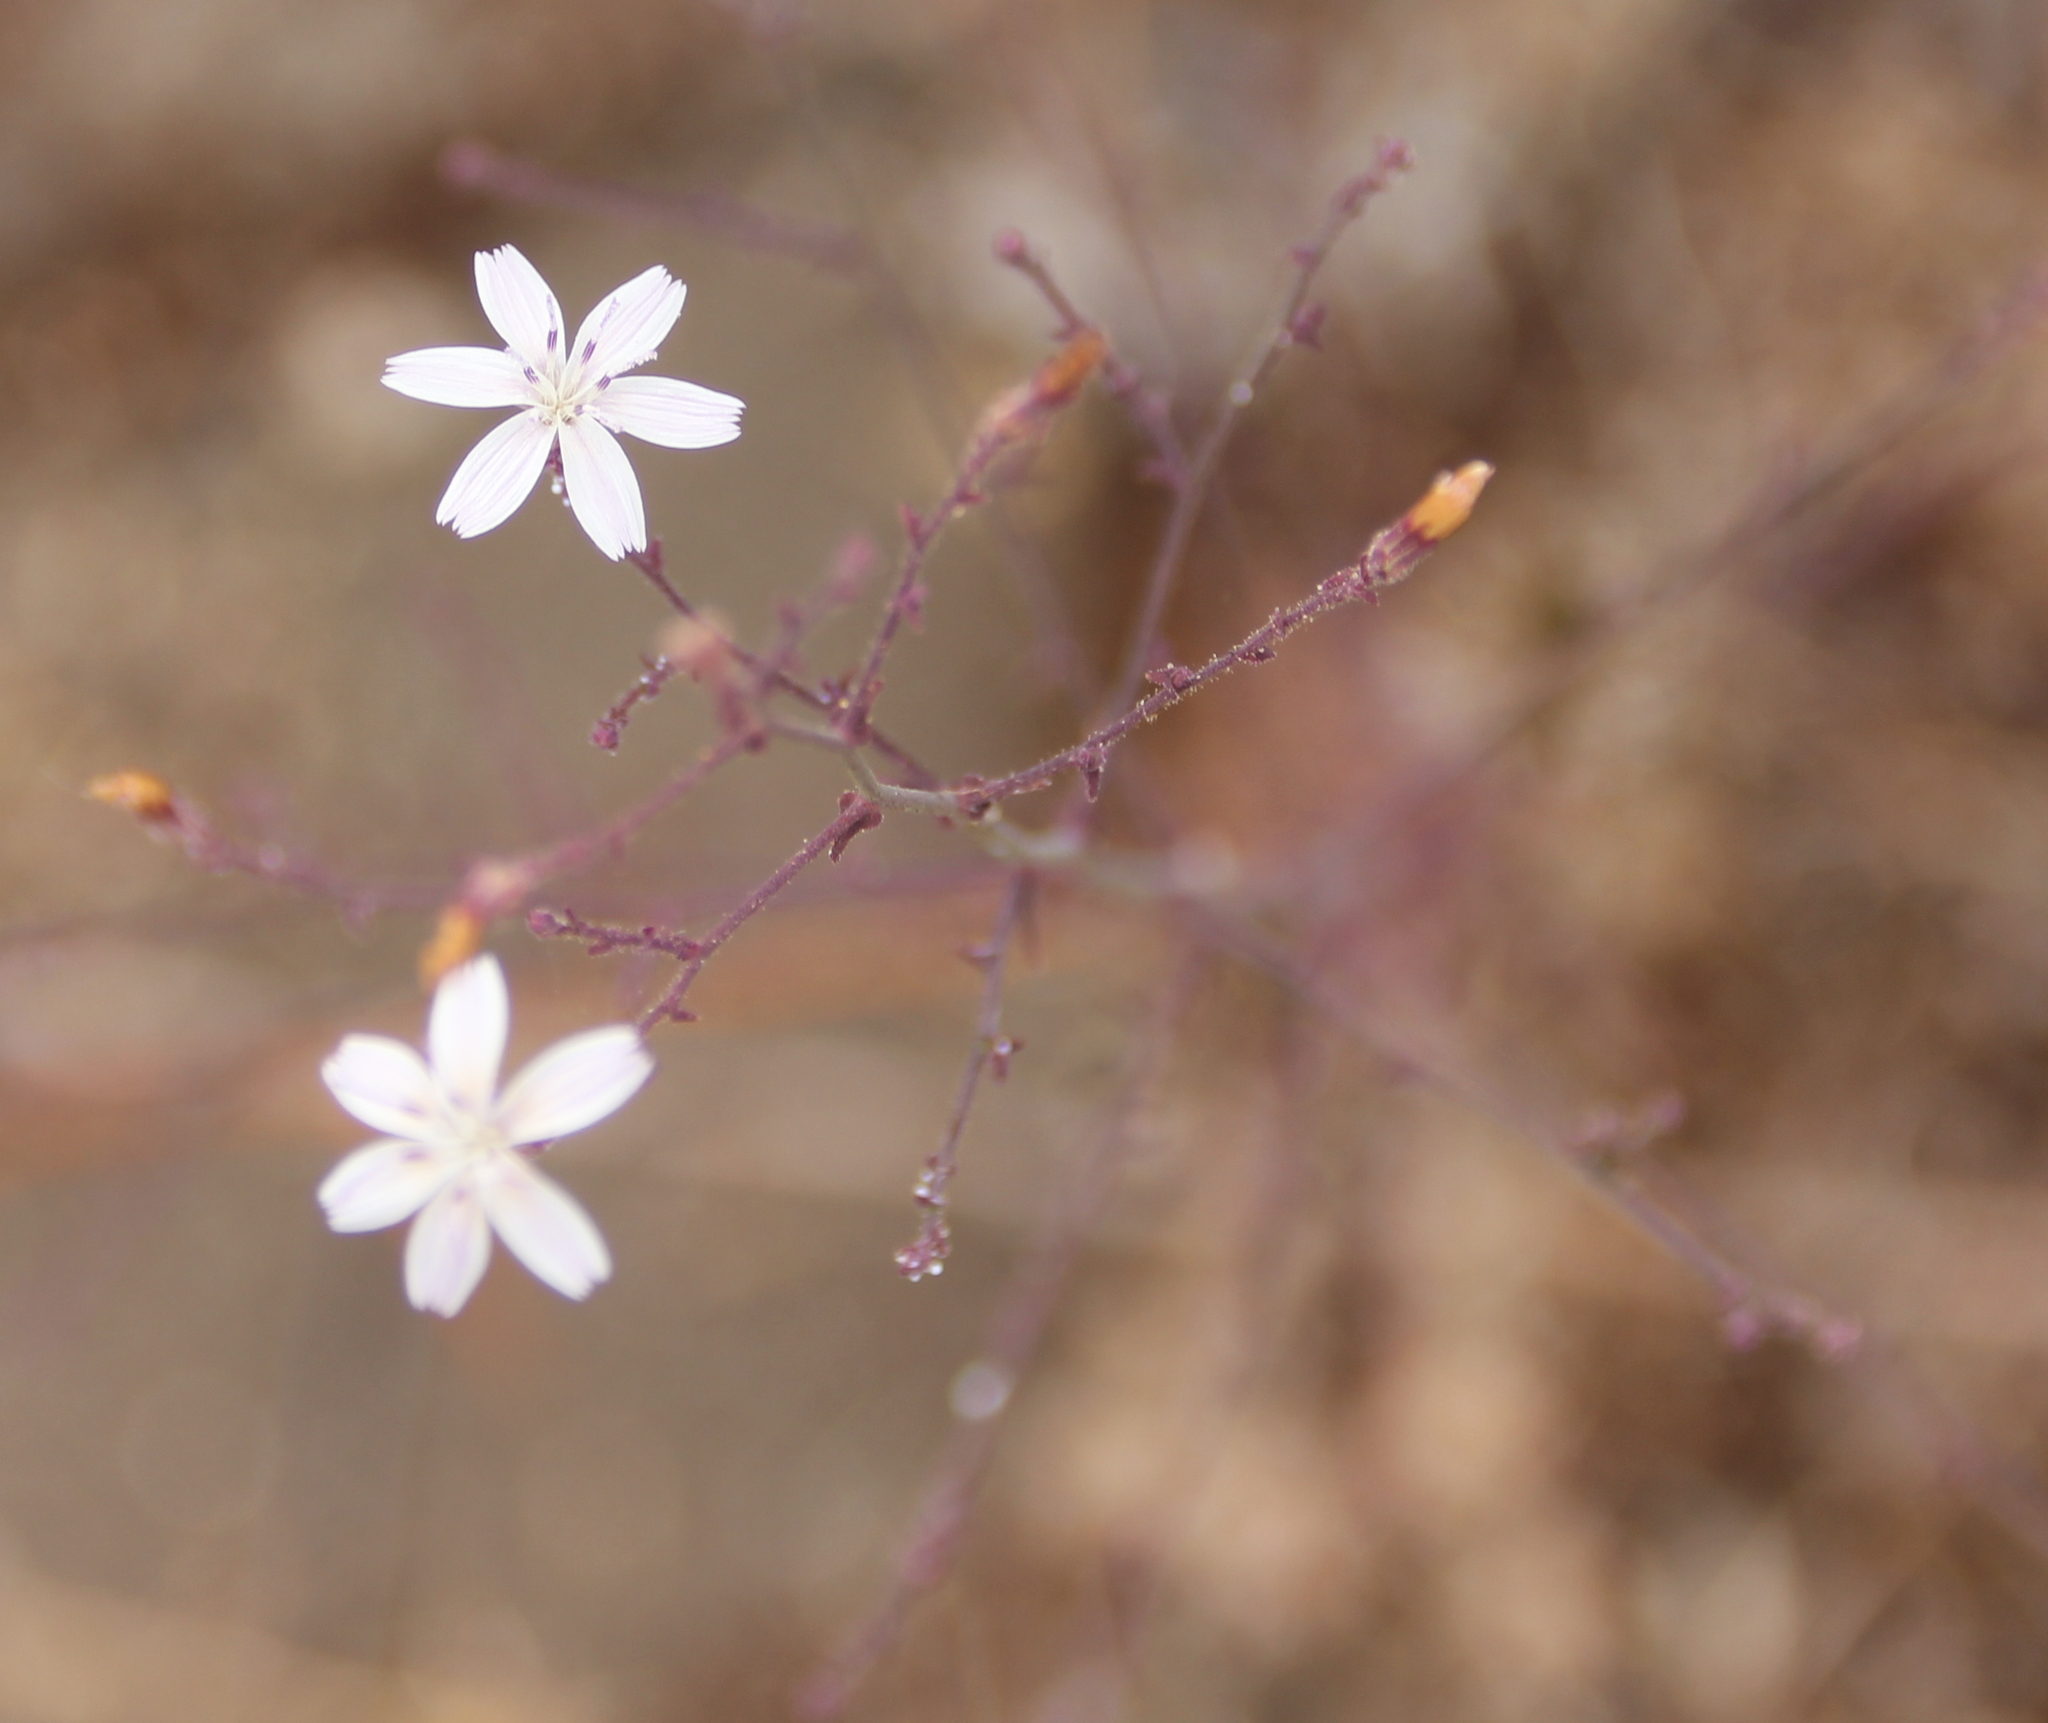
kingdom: Plantae
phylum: Tracheophyta
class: Magnoliopsida
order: Asterales
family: Asteraceae
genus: Stephanomeria
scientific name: Stephanomeria exigua
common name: Small wirelettuce
